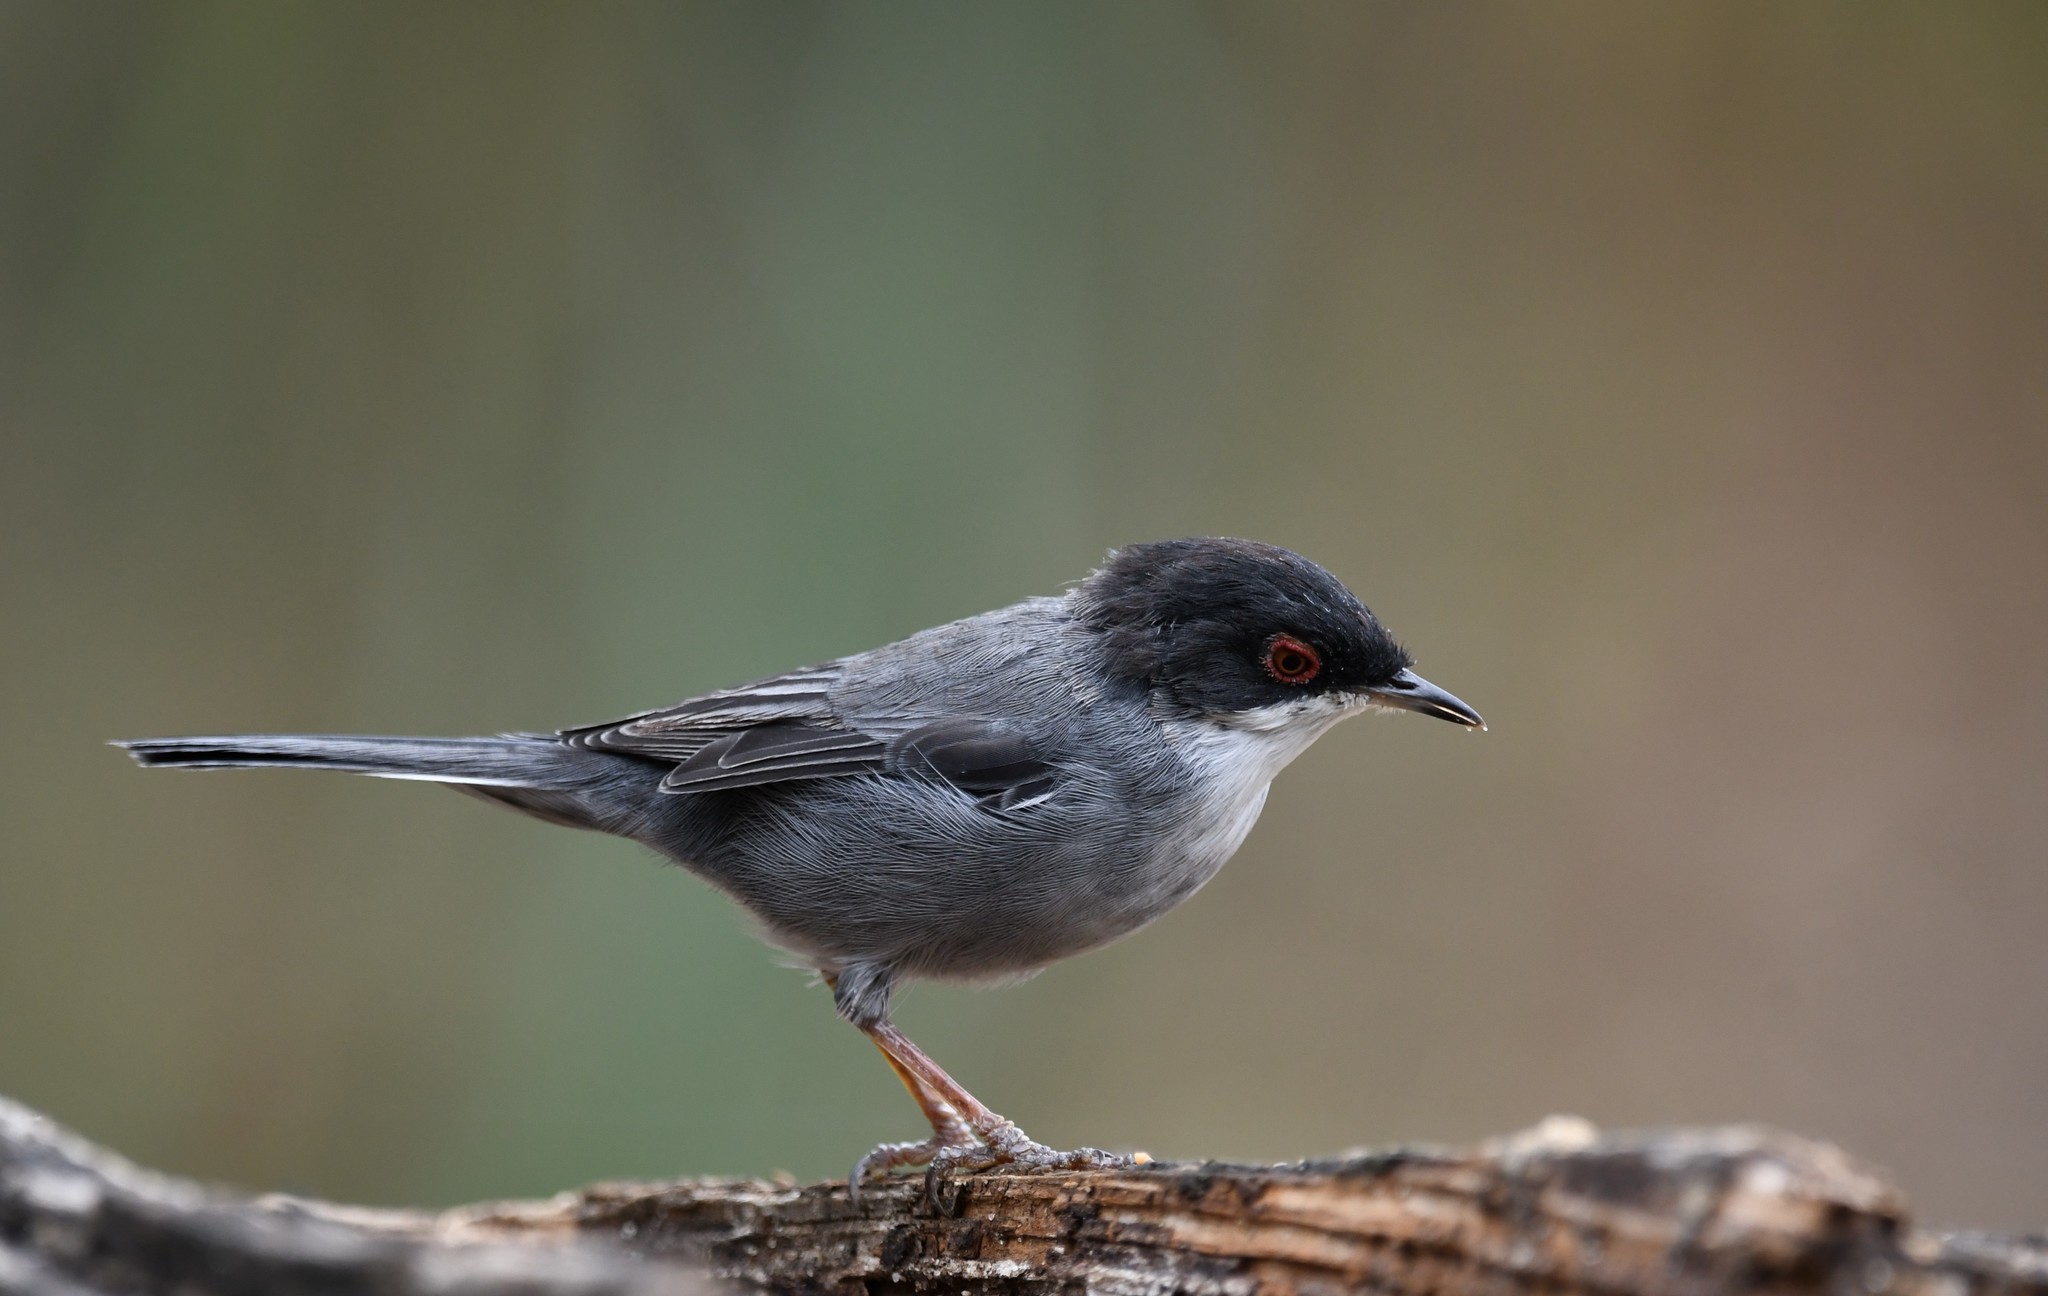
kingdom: Animalia
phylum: Chordata
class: Aves
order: Passeriformes
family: Sylviidae
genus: Curruca
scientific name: Curruca melanocephala
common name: Sardinian warbler
